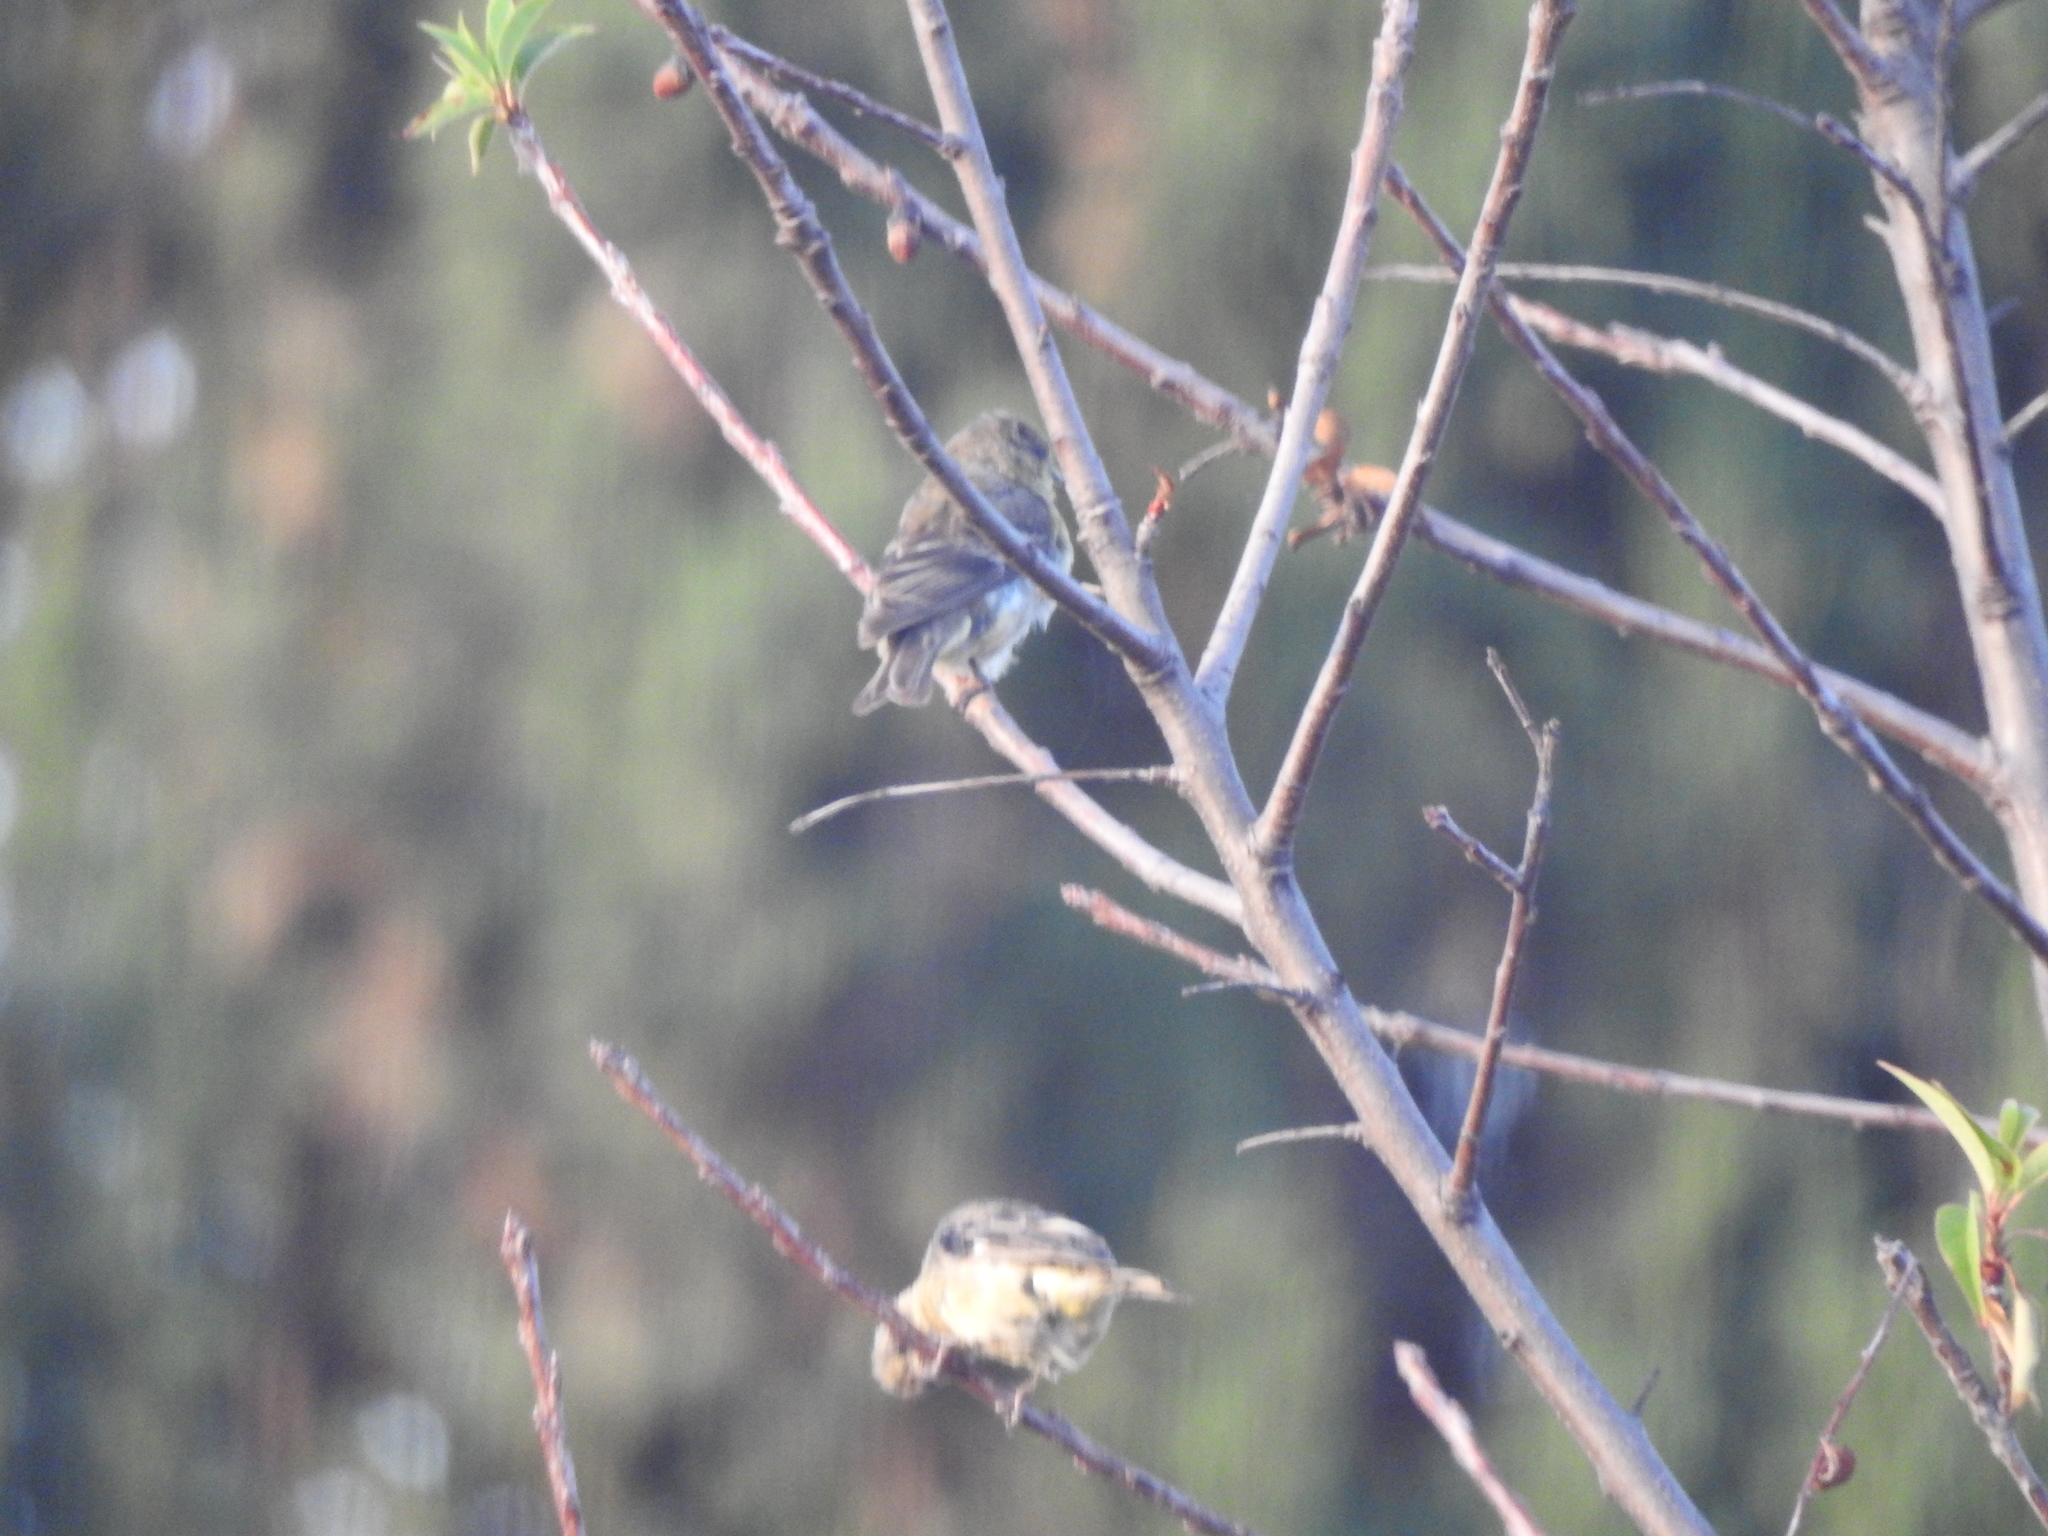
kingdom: Animalia
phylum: Chordata
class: Aves
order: Passeriformes
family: Fringillidae
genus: Spinus
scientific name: Spinus psaltria
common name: Lesser goldfinch
